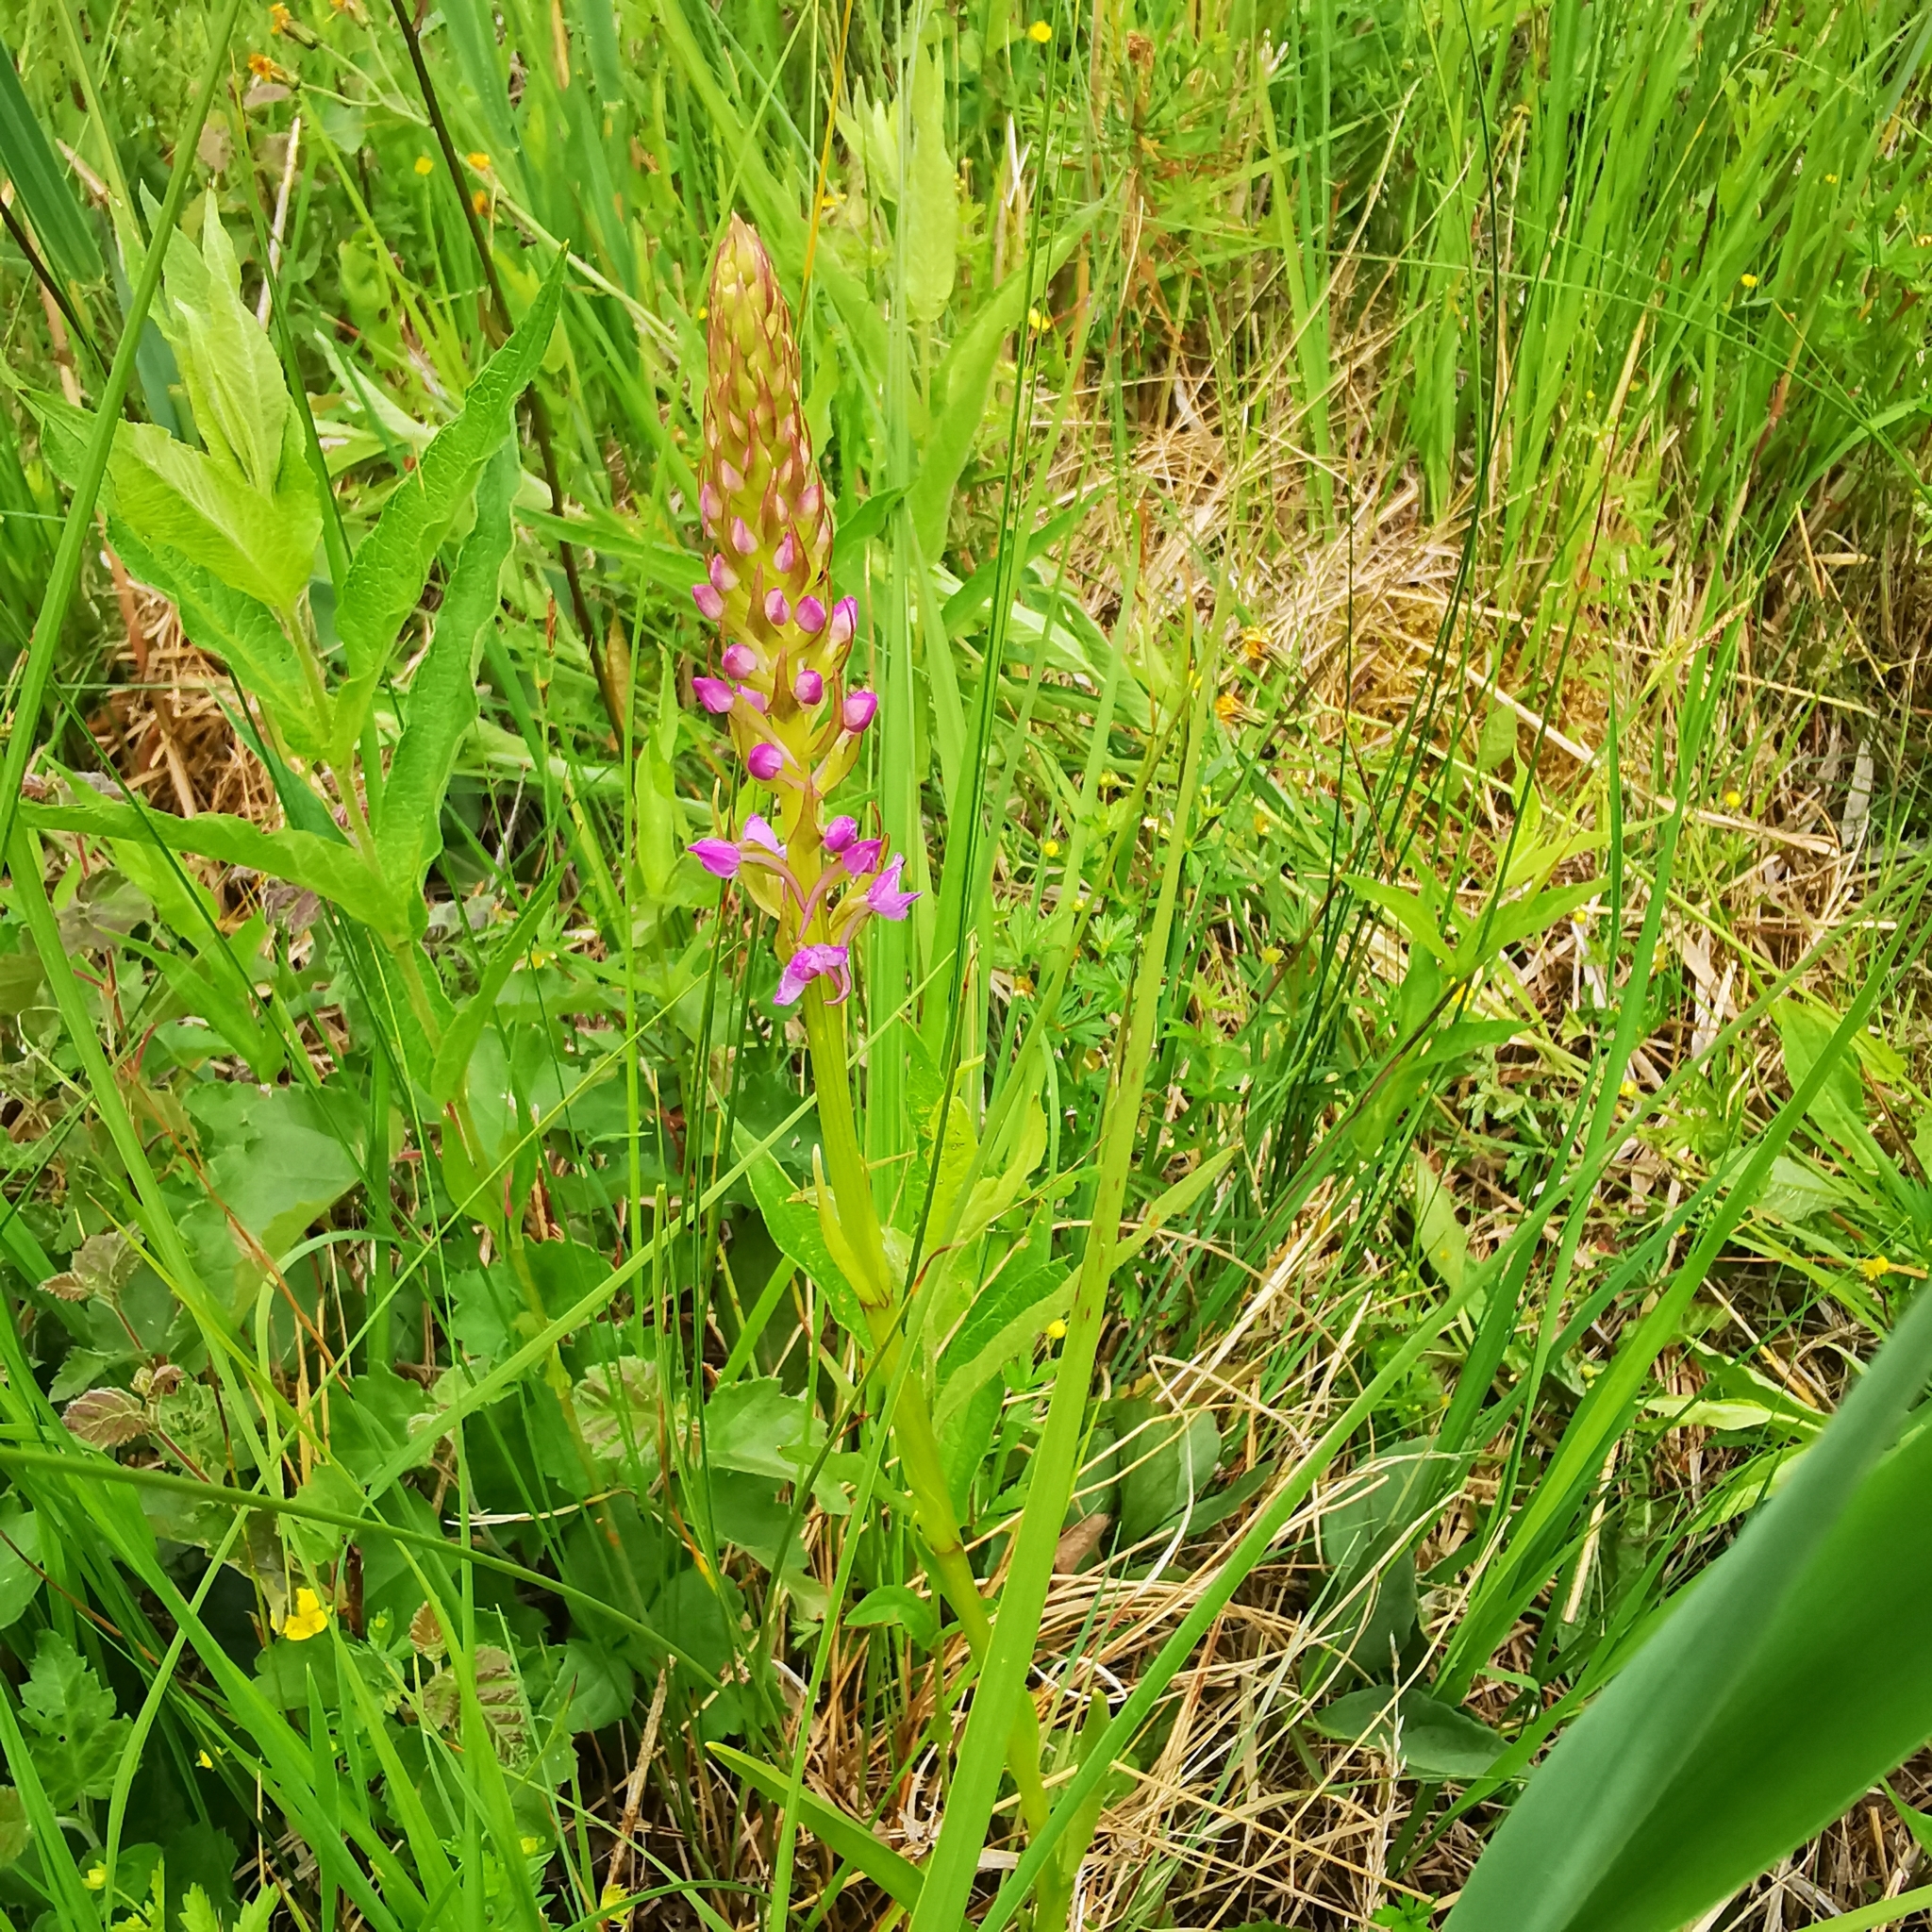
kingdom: Plantae
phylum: Tracheophyta
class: Liliopsida
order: Asparagales
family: Orchidaceae
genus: Gymnadenia
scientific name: Gymnadenia conopsea
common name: Fragrant orchid
